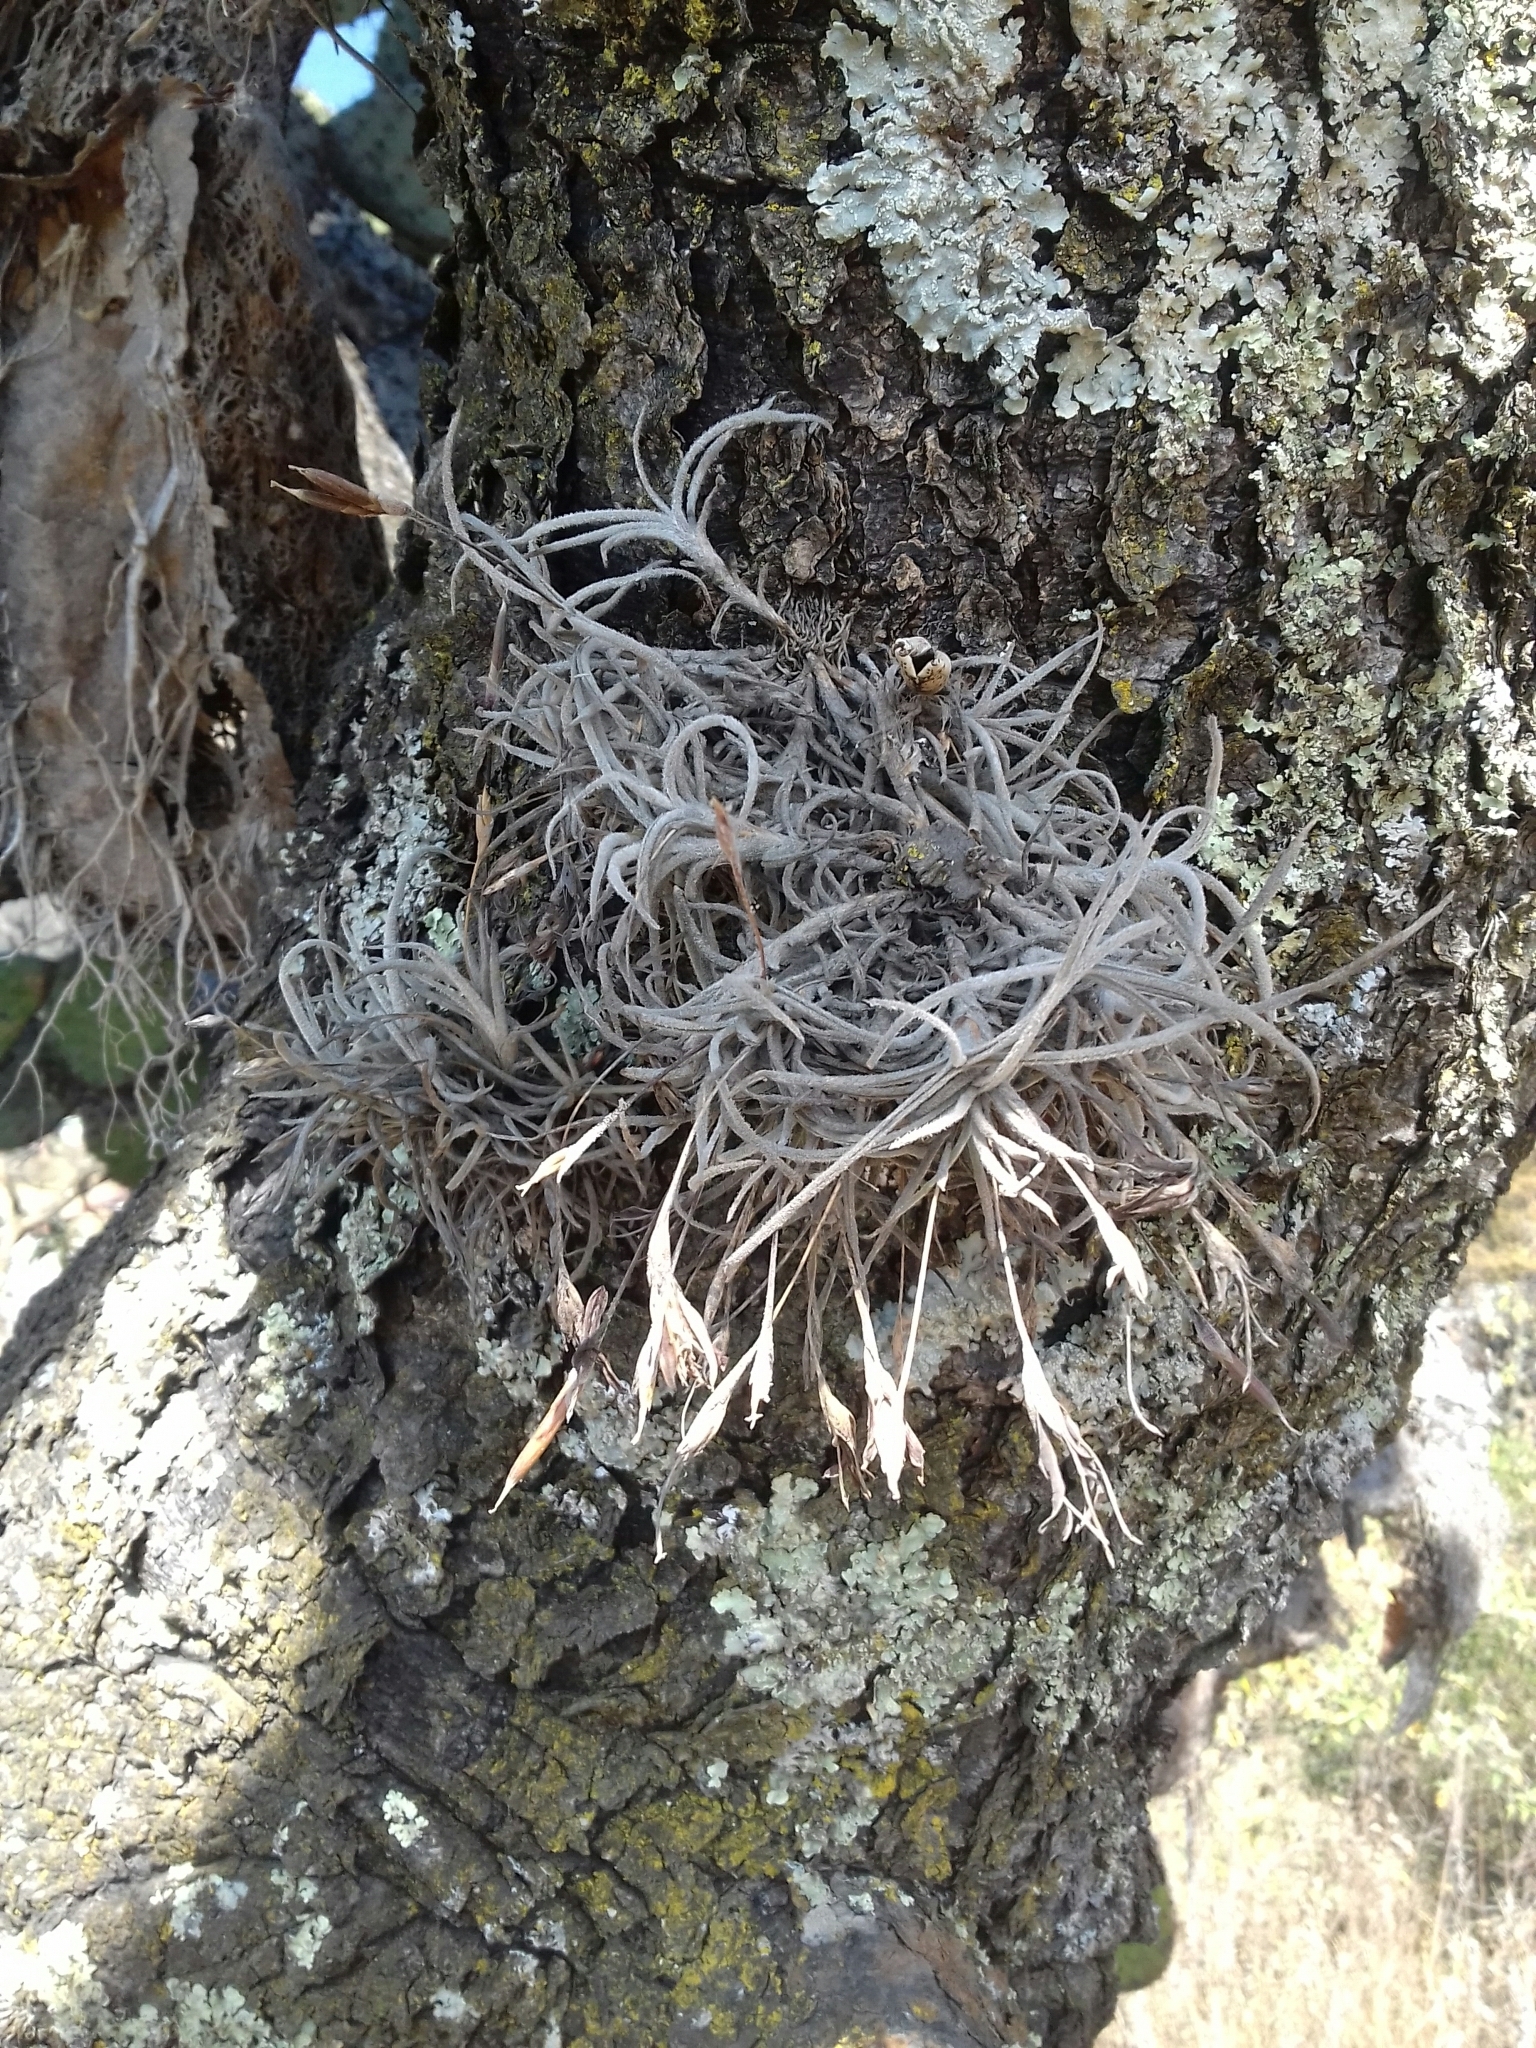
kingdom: Plantae
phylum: Tracheophyta
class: Liliopsida
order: Poales
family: Bromeliaceae
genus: Tillandsia
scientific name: Tillandsia recurvata
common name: Small ballmoss
